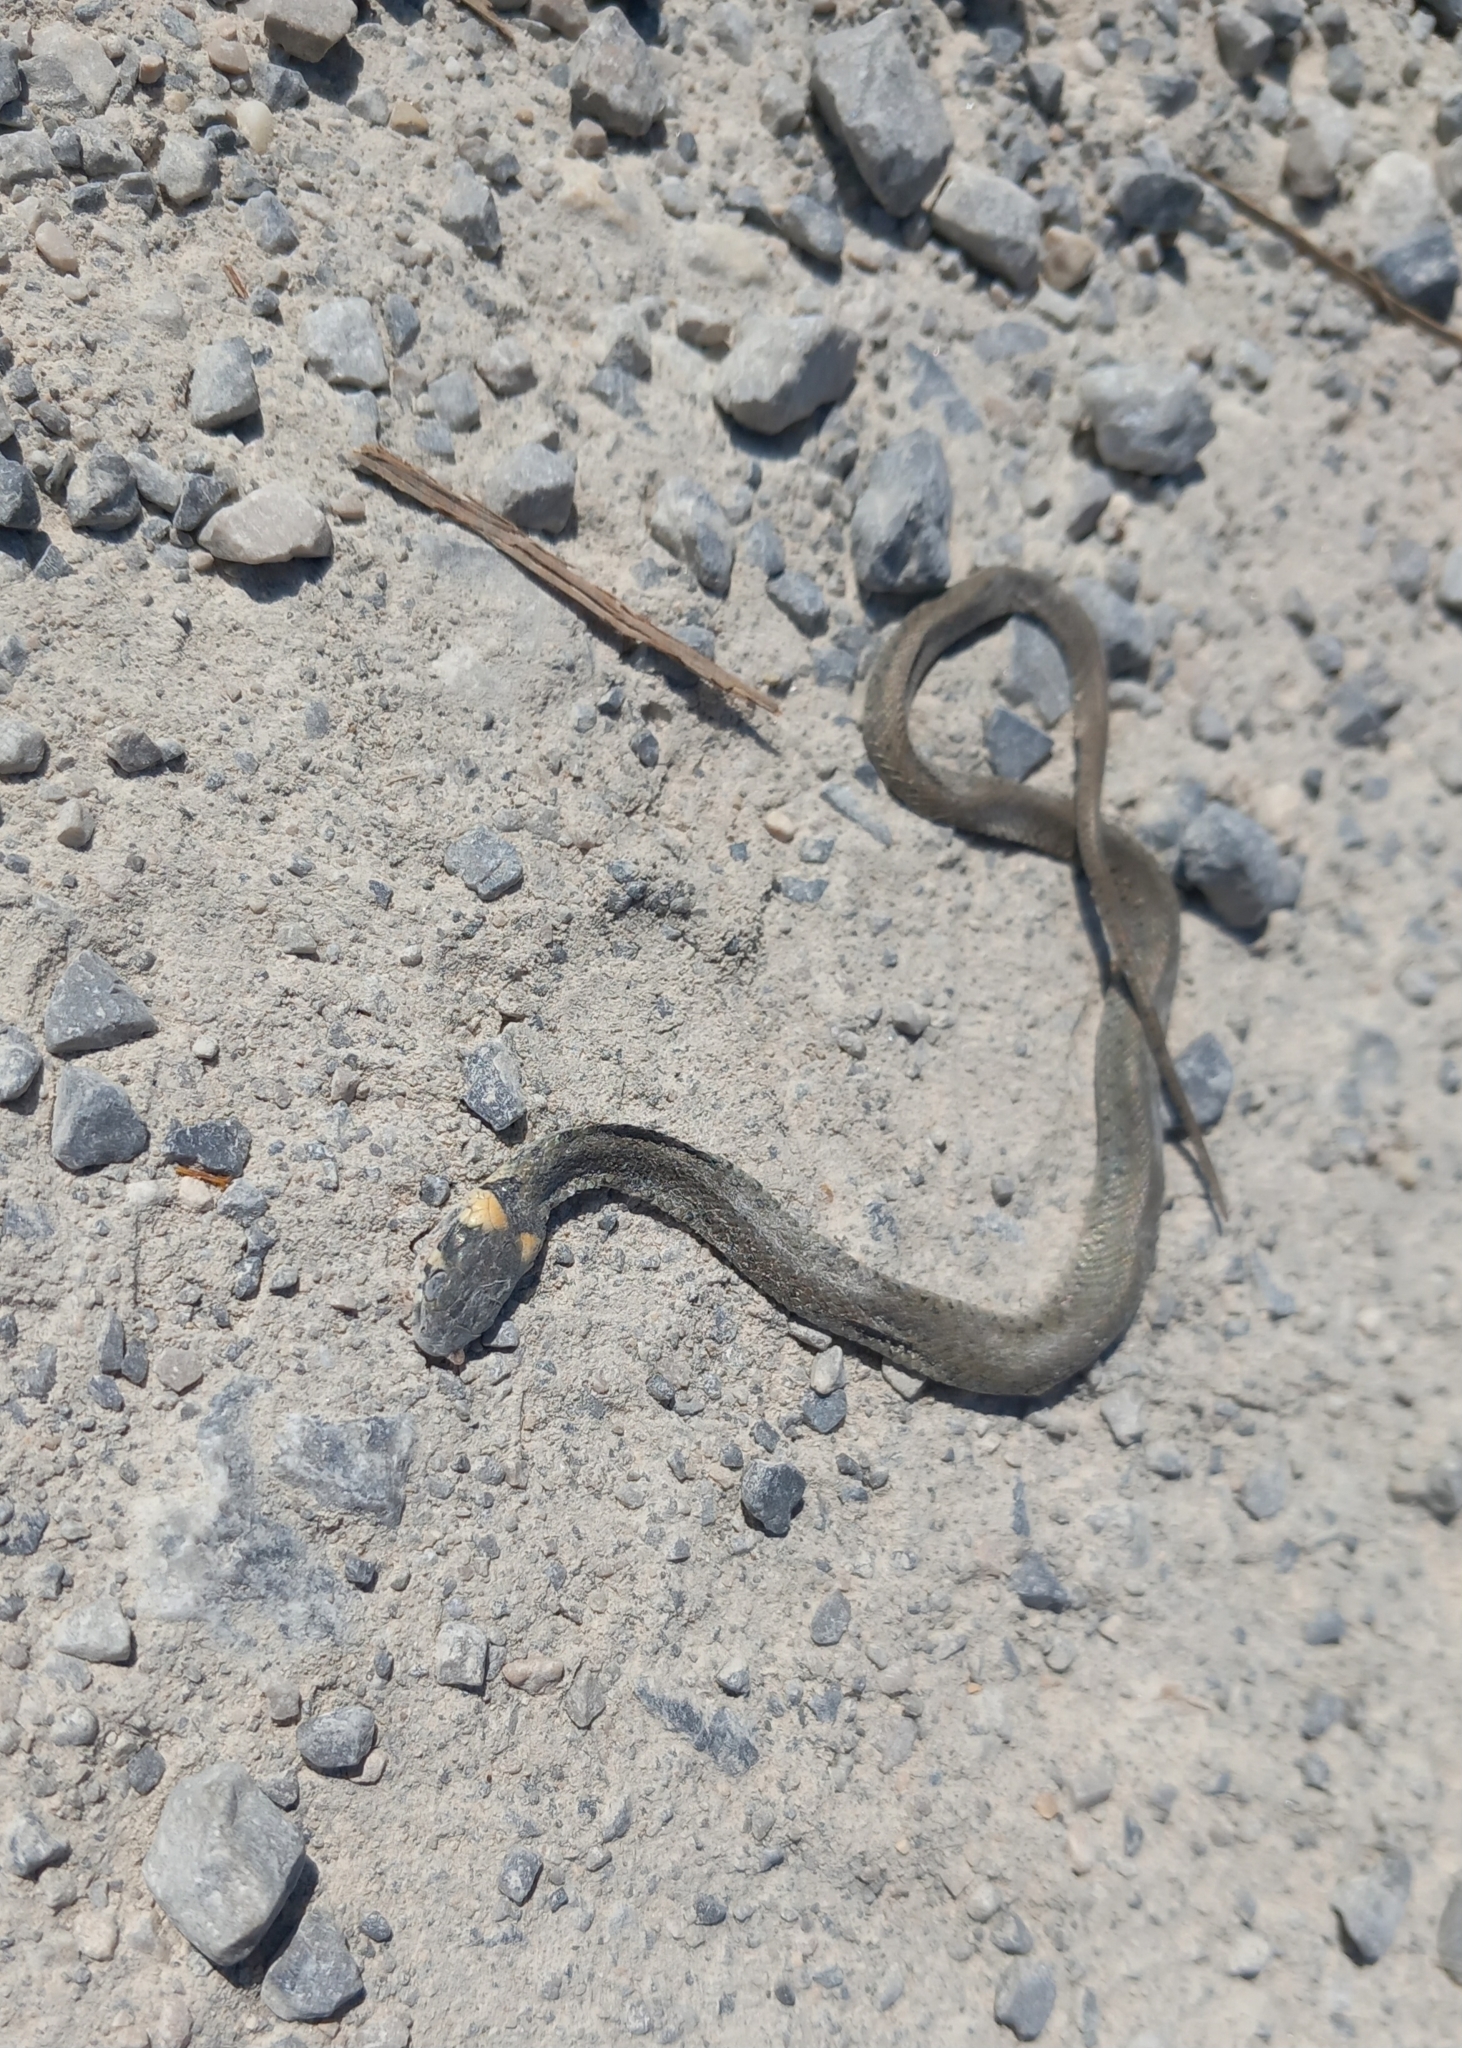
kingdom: Animalia
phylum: Chordata
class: Squamata
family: Colubridae
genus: Natrix
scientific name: Natrix natrix
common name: Grass snake
